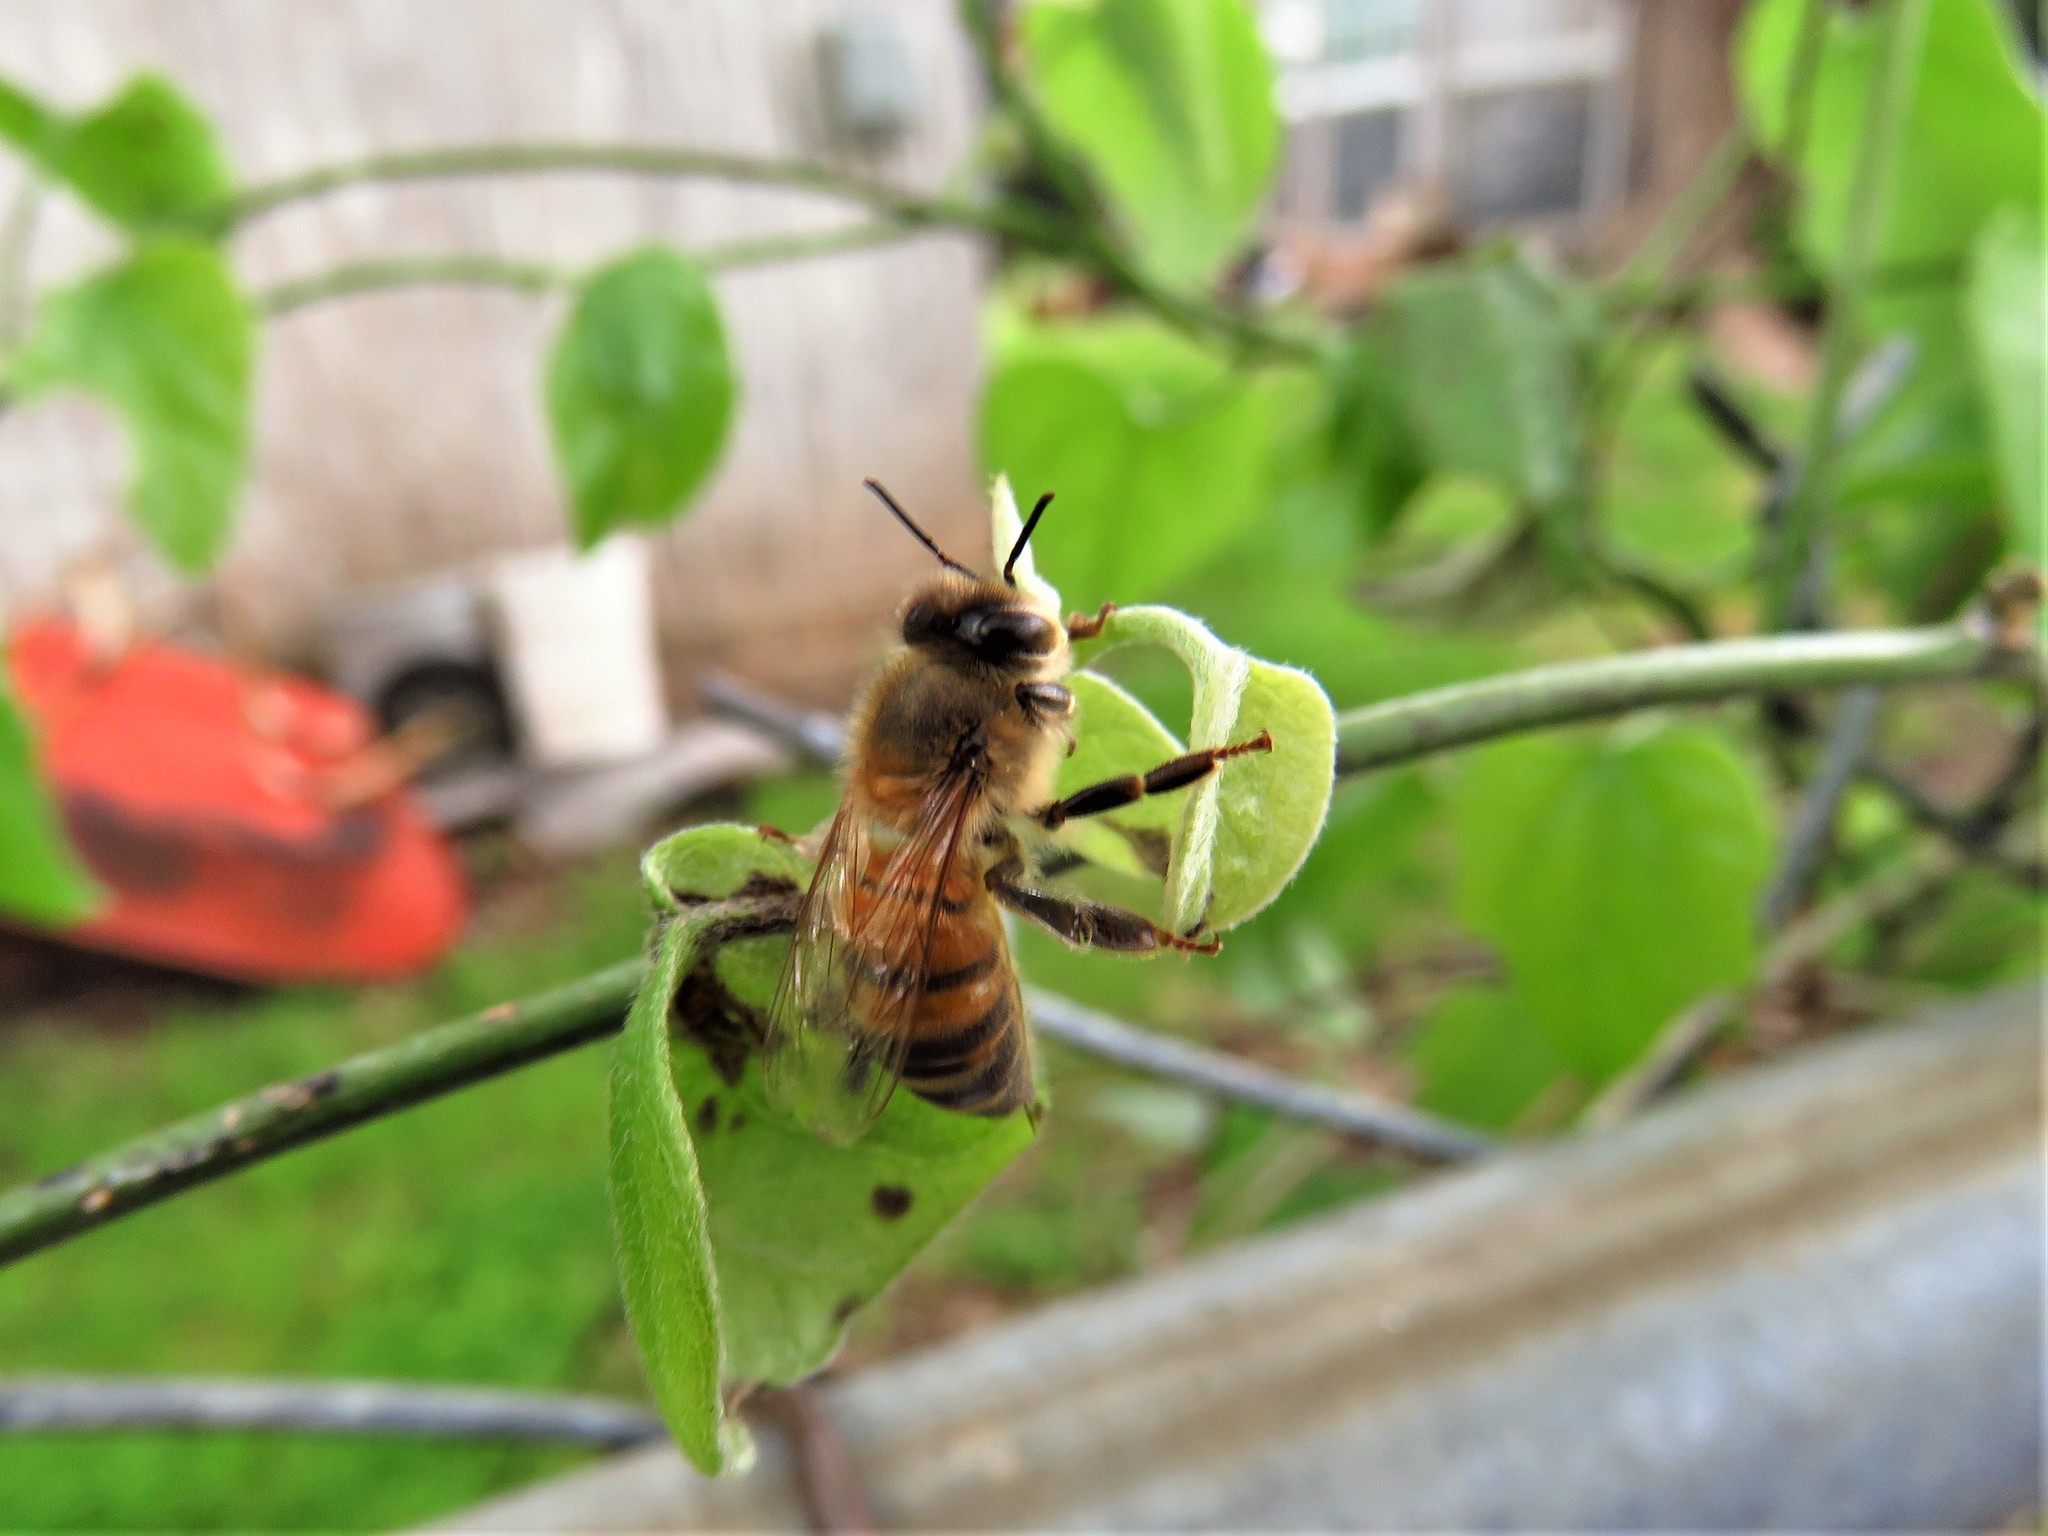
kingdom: Animalia
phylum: Arthropoda
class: Insecta
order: Hymenoptera
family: Apidae
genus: Apis
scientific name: Apis mellifera
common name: Honey bee
